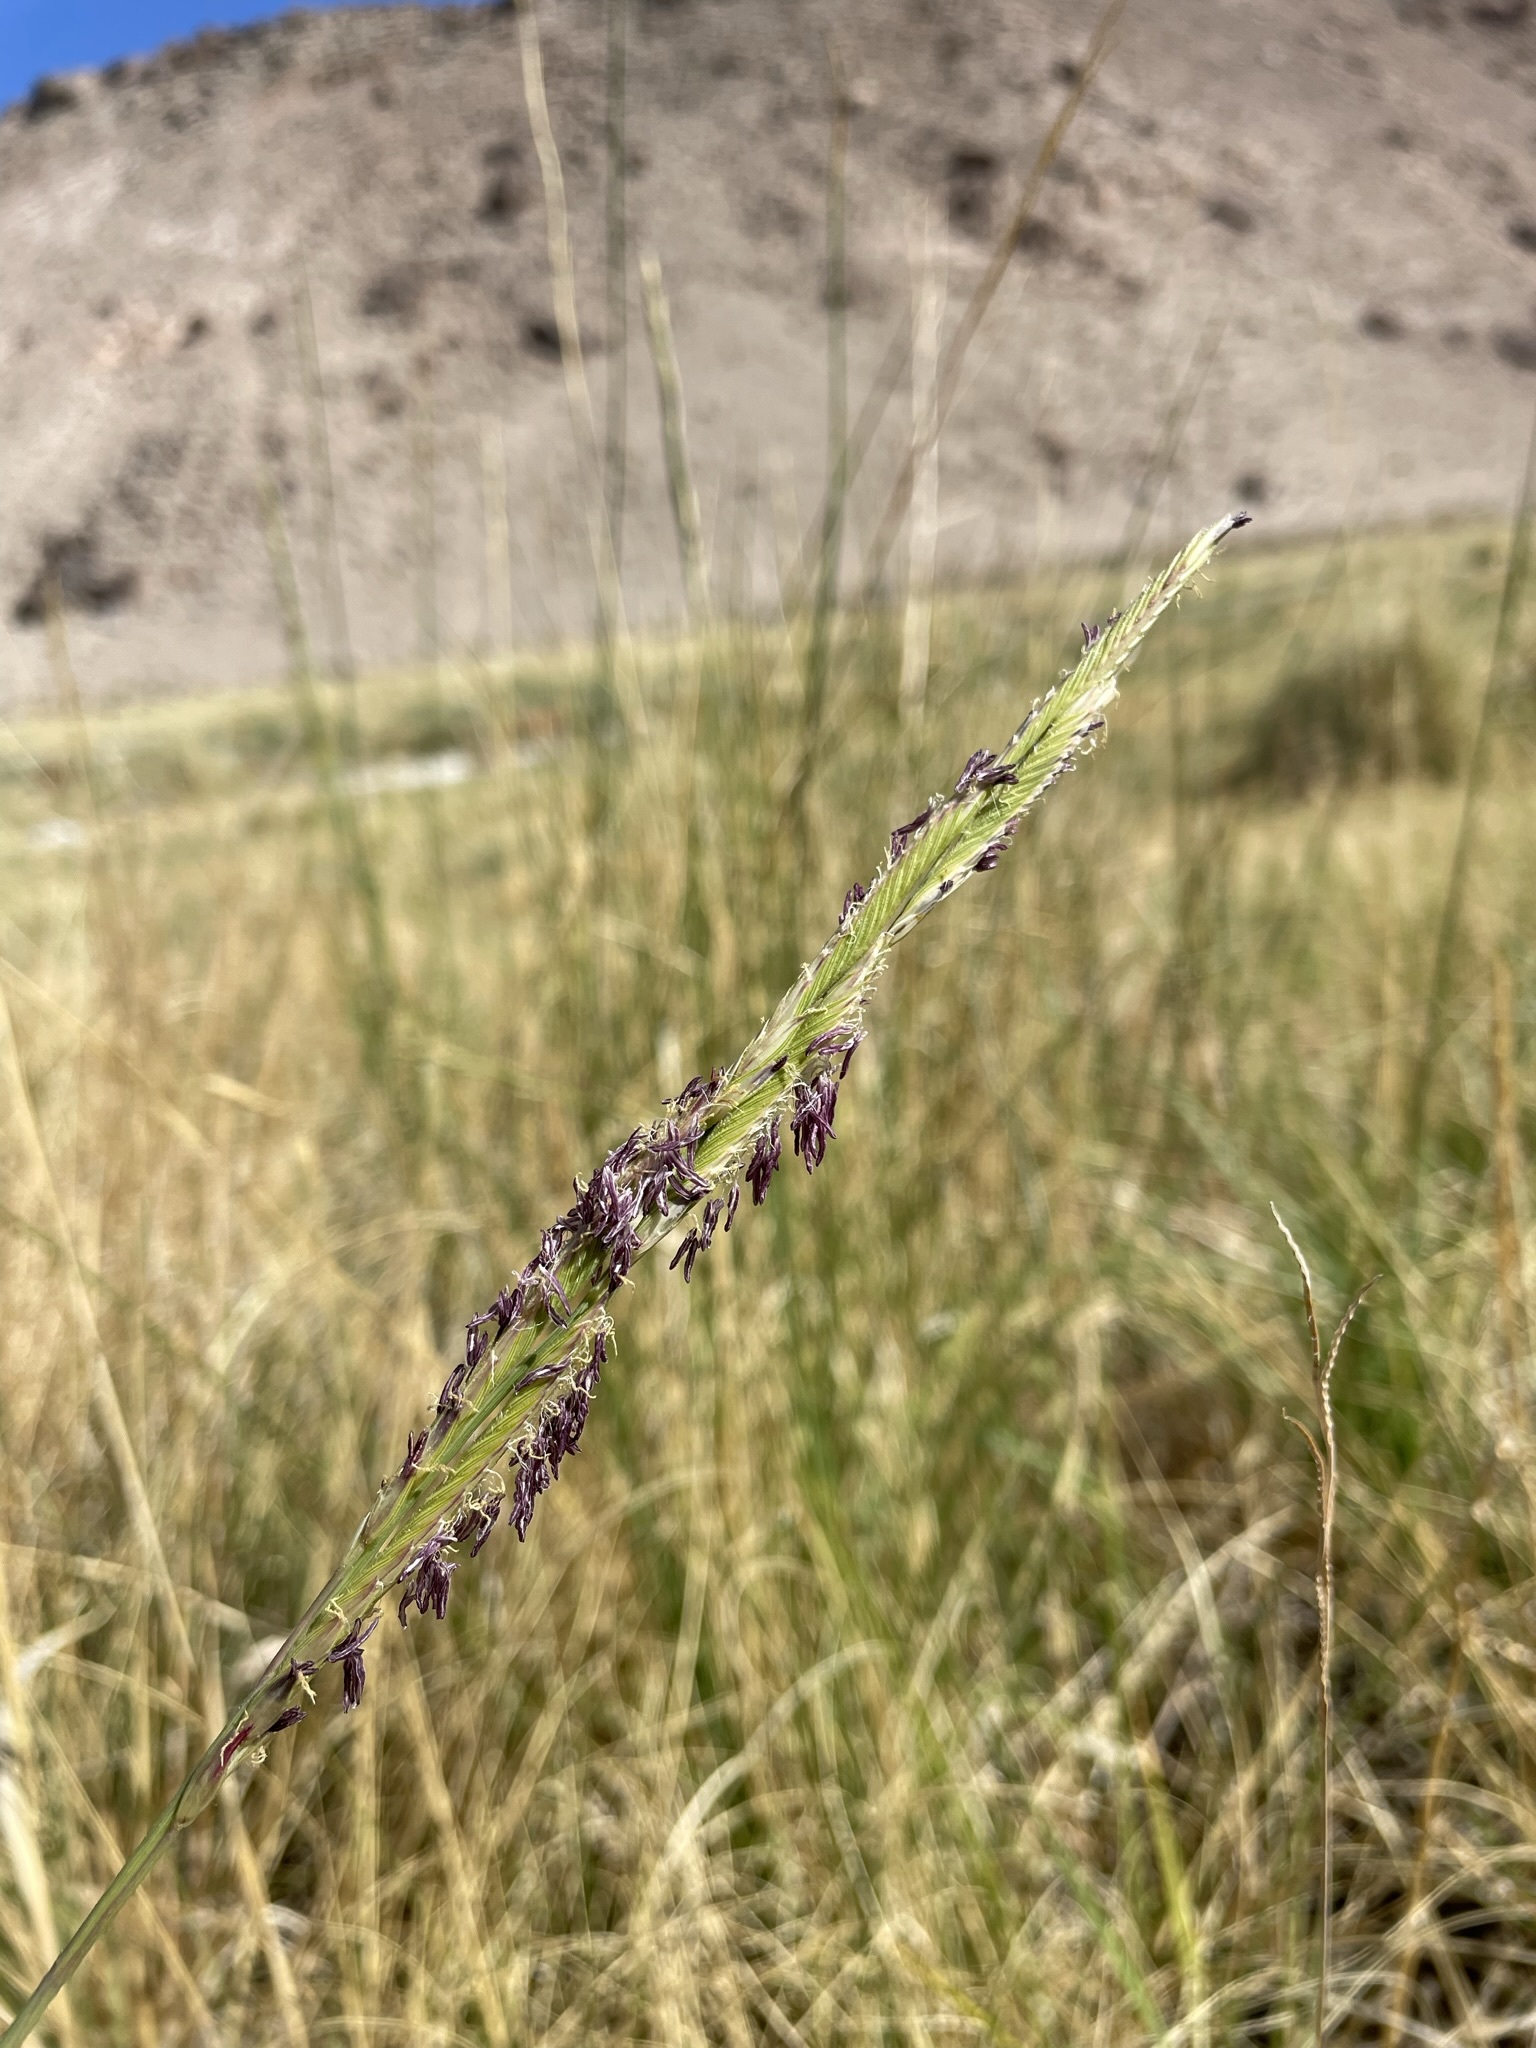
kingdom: Plantae
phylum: Tracheophyta
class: Liliopsida
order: Poales
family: Poaceae
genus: Sporobolus
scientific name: Sporobolus hookerianus
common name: Alkali cordgrass
